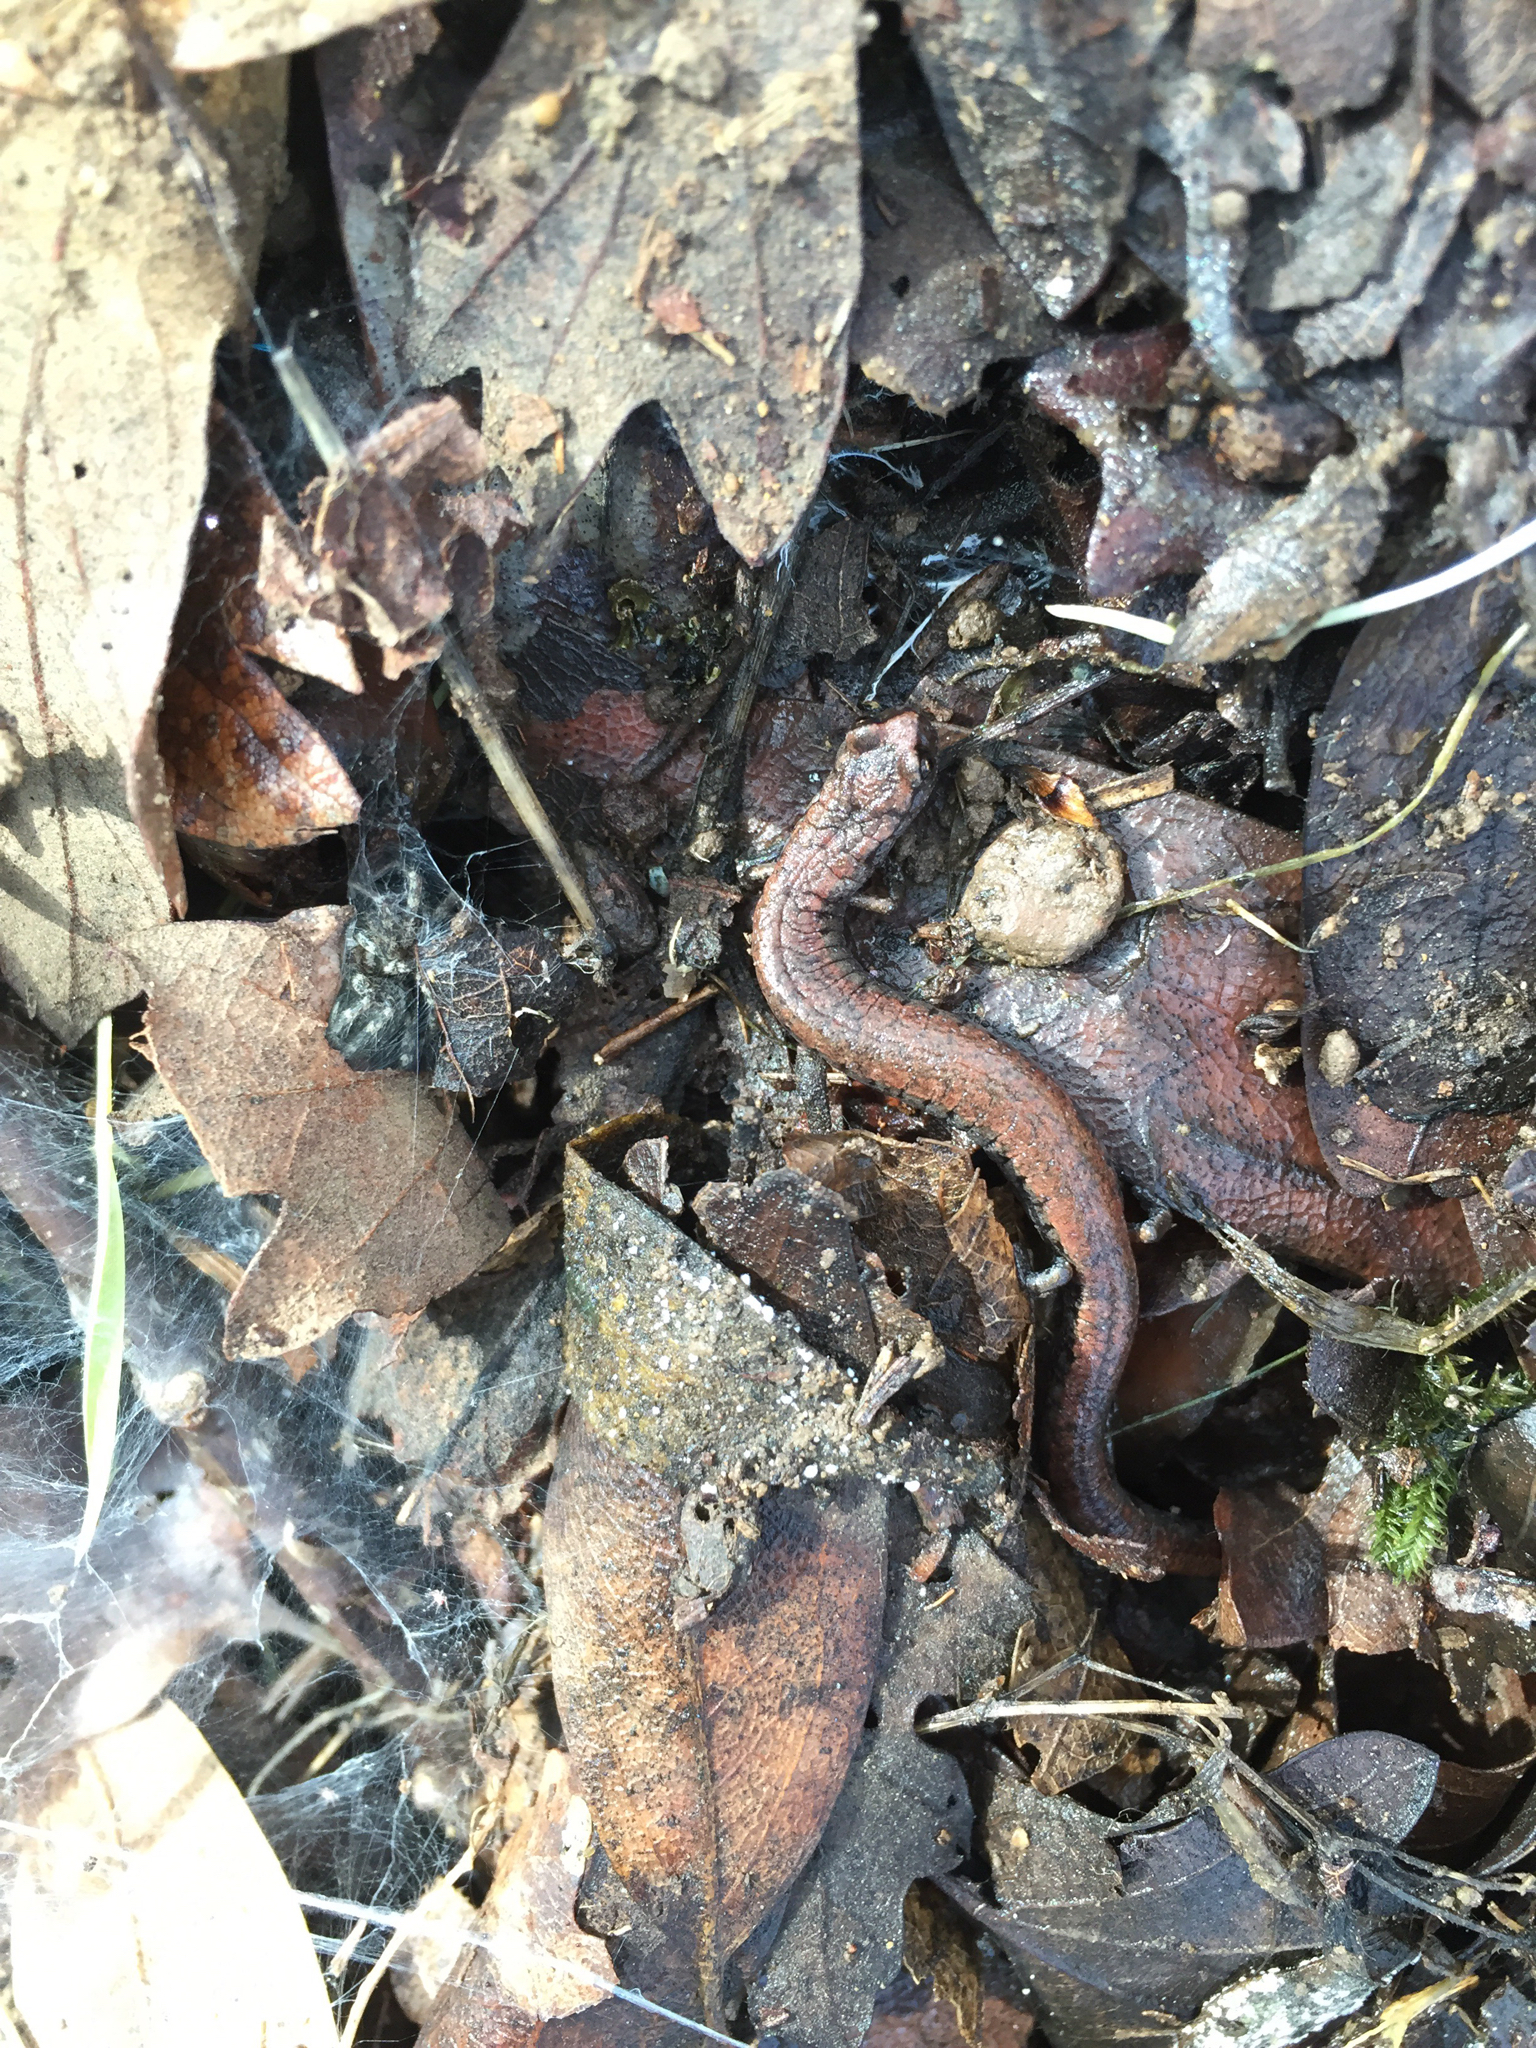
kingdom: Animalia
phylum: Chordata
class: Amphibia
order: Caudata
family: Plethodontidae
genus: Batrachoseps
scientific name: Batrachoseps attenuatus
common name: California slender salamander
